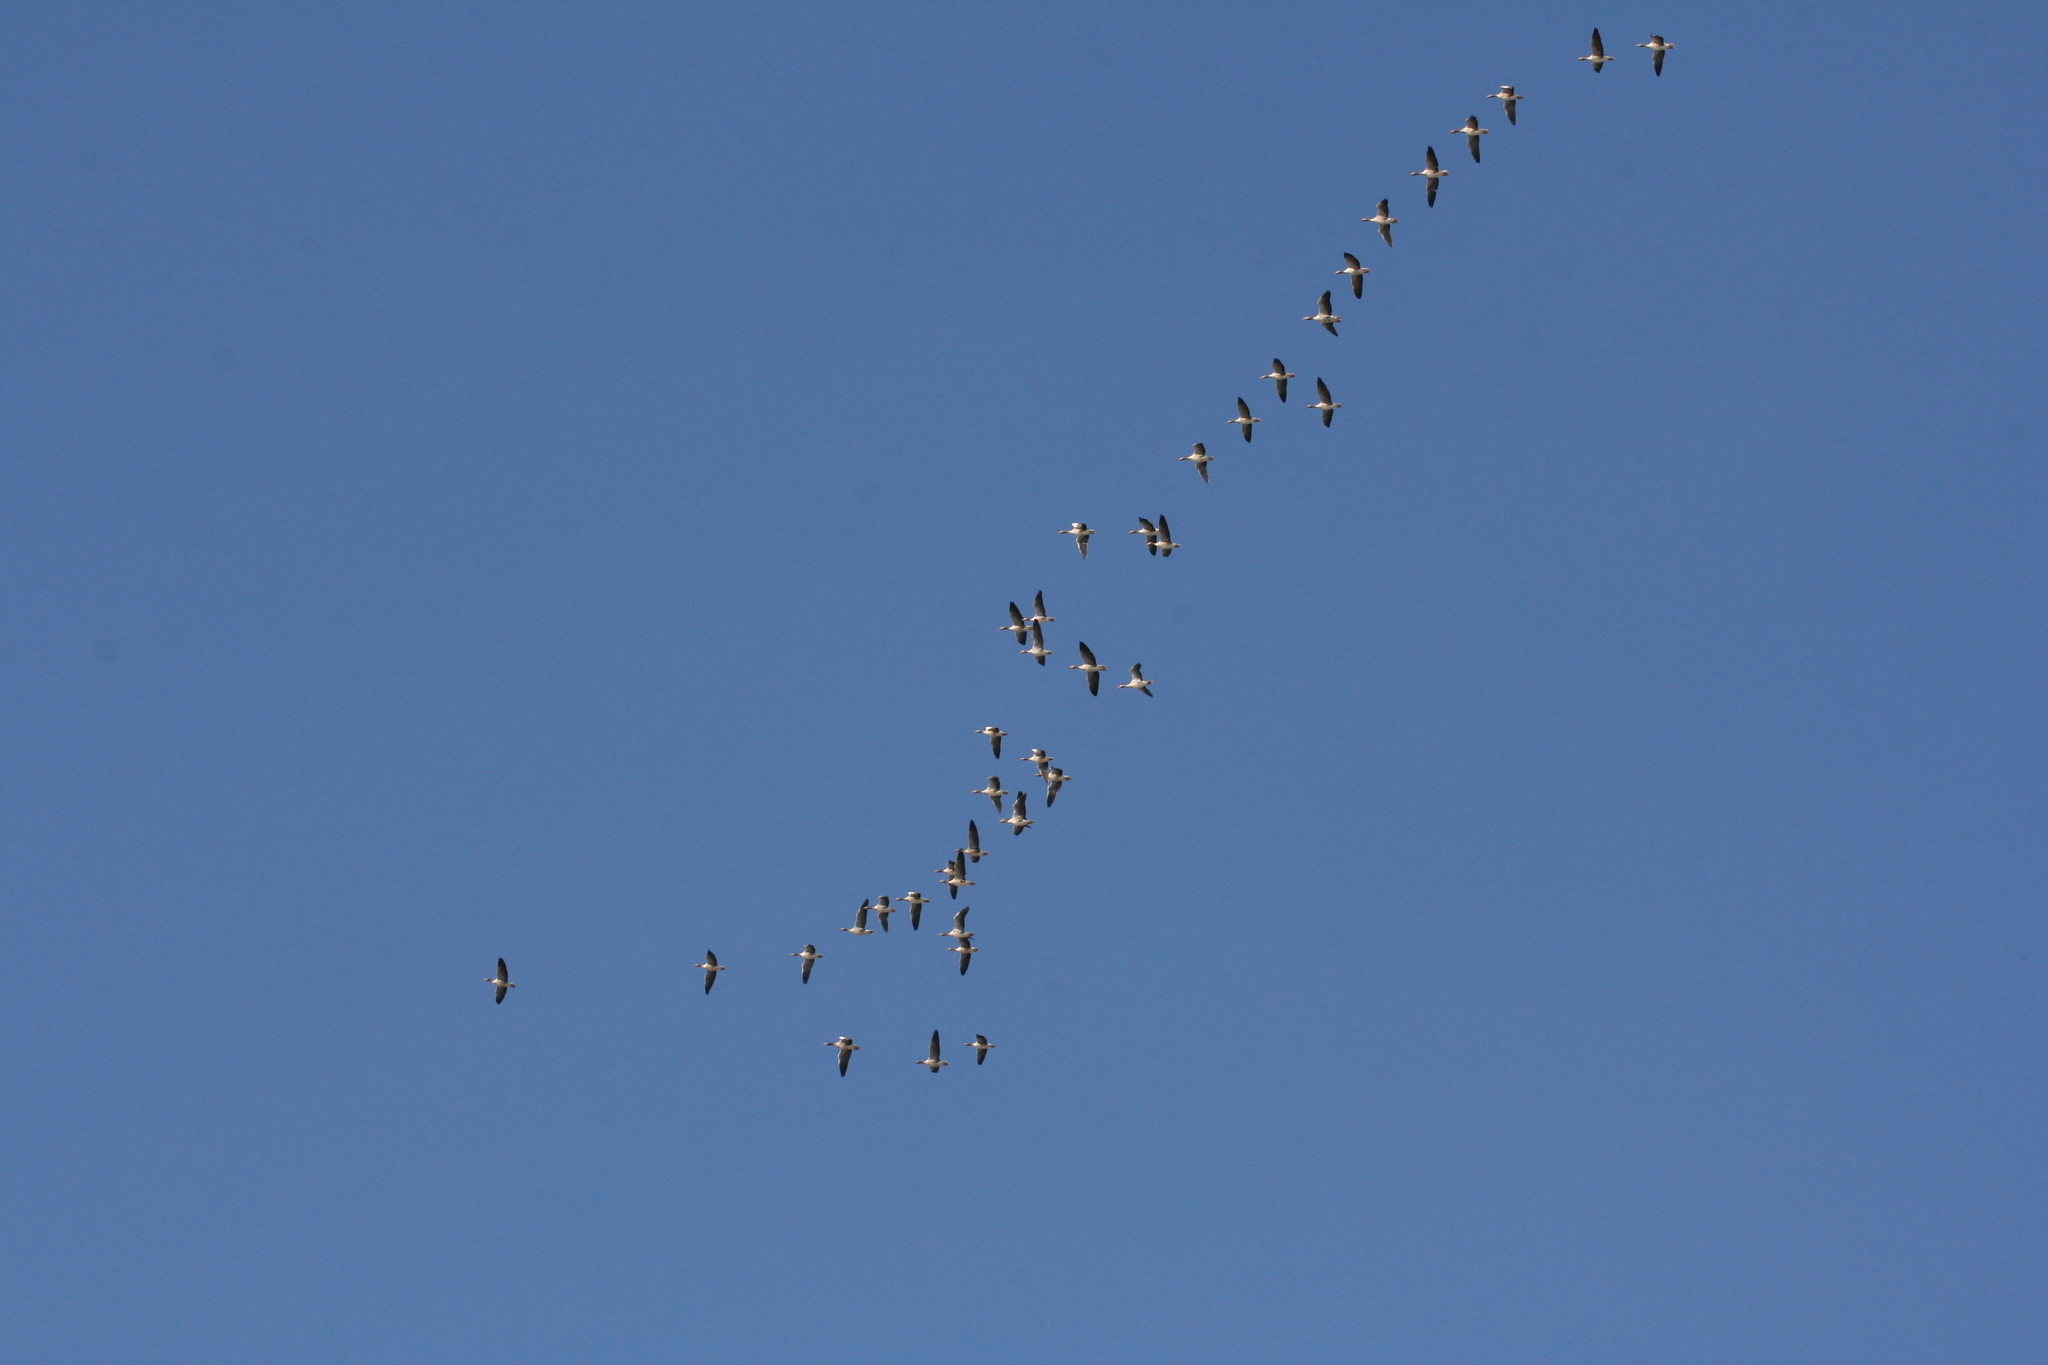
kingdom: Animalia
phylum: Chordata
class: Aves
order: Anseriformes
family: Anatidae
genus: Anser
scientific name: Anser anser
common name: Greylag goose
